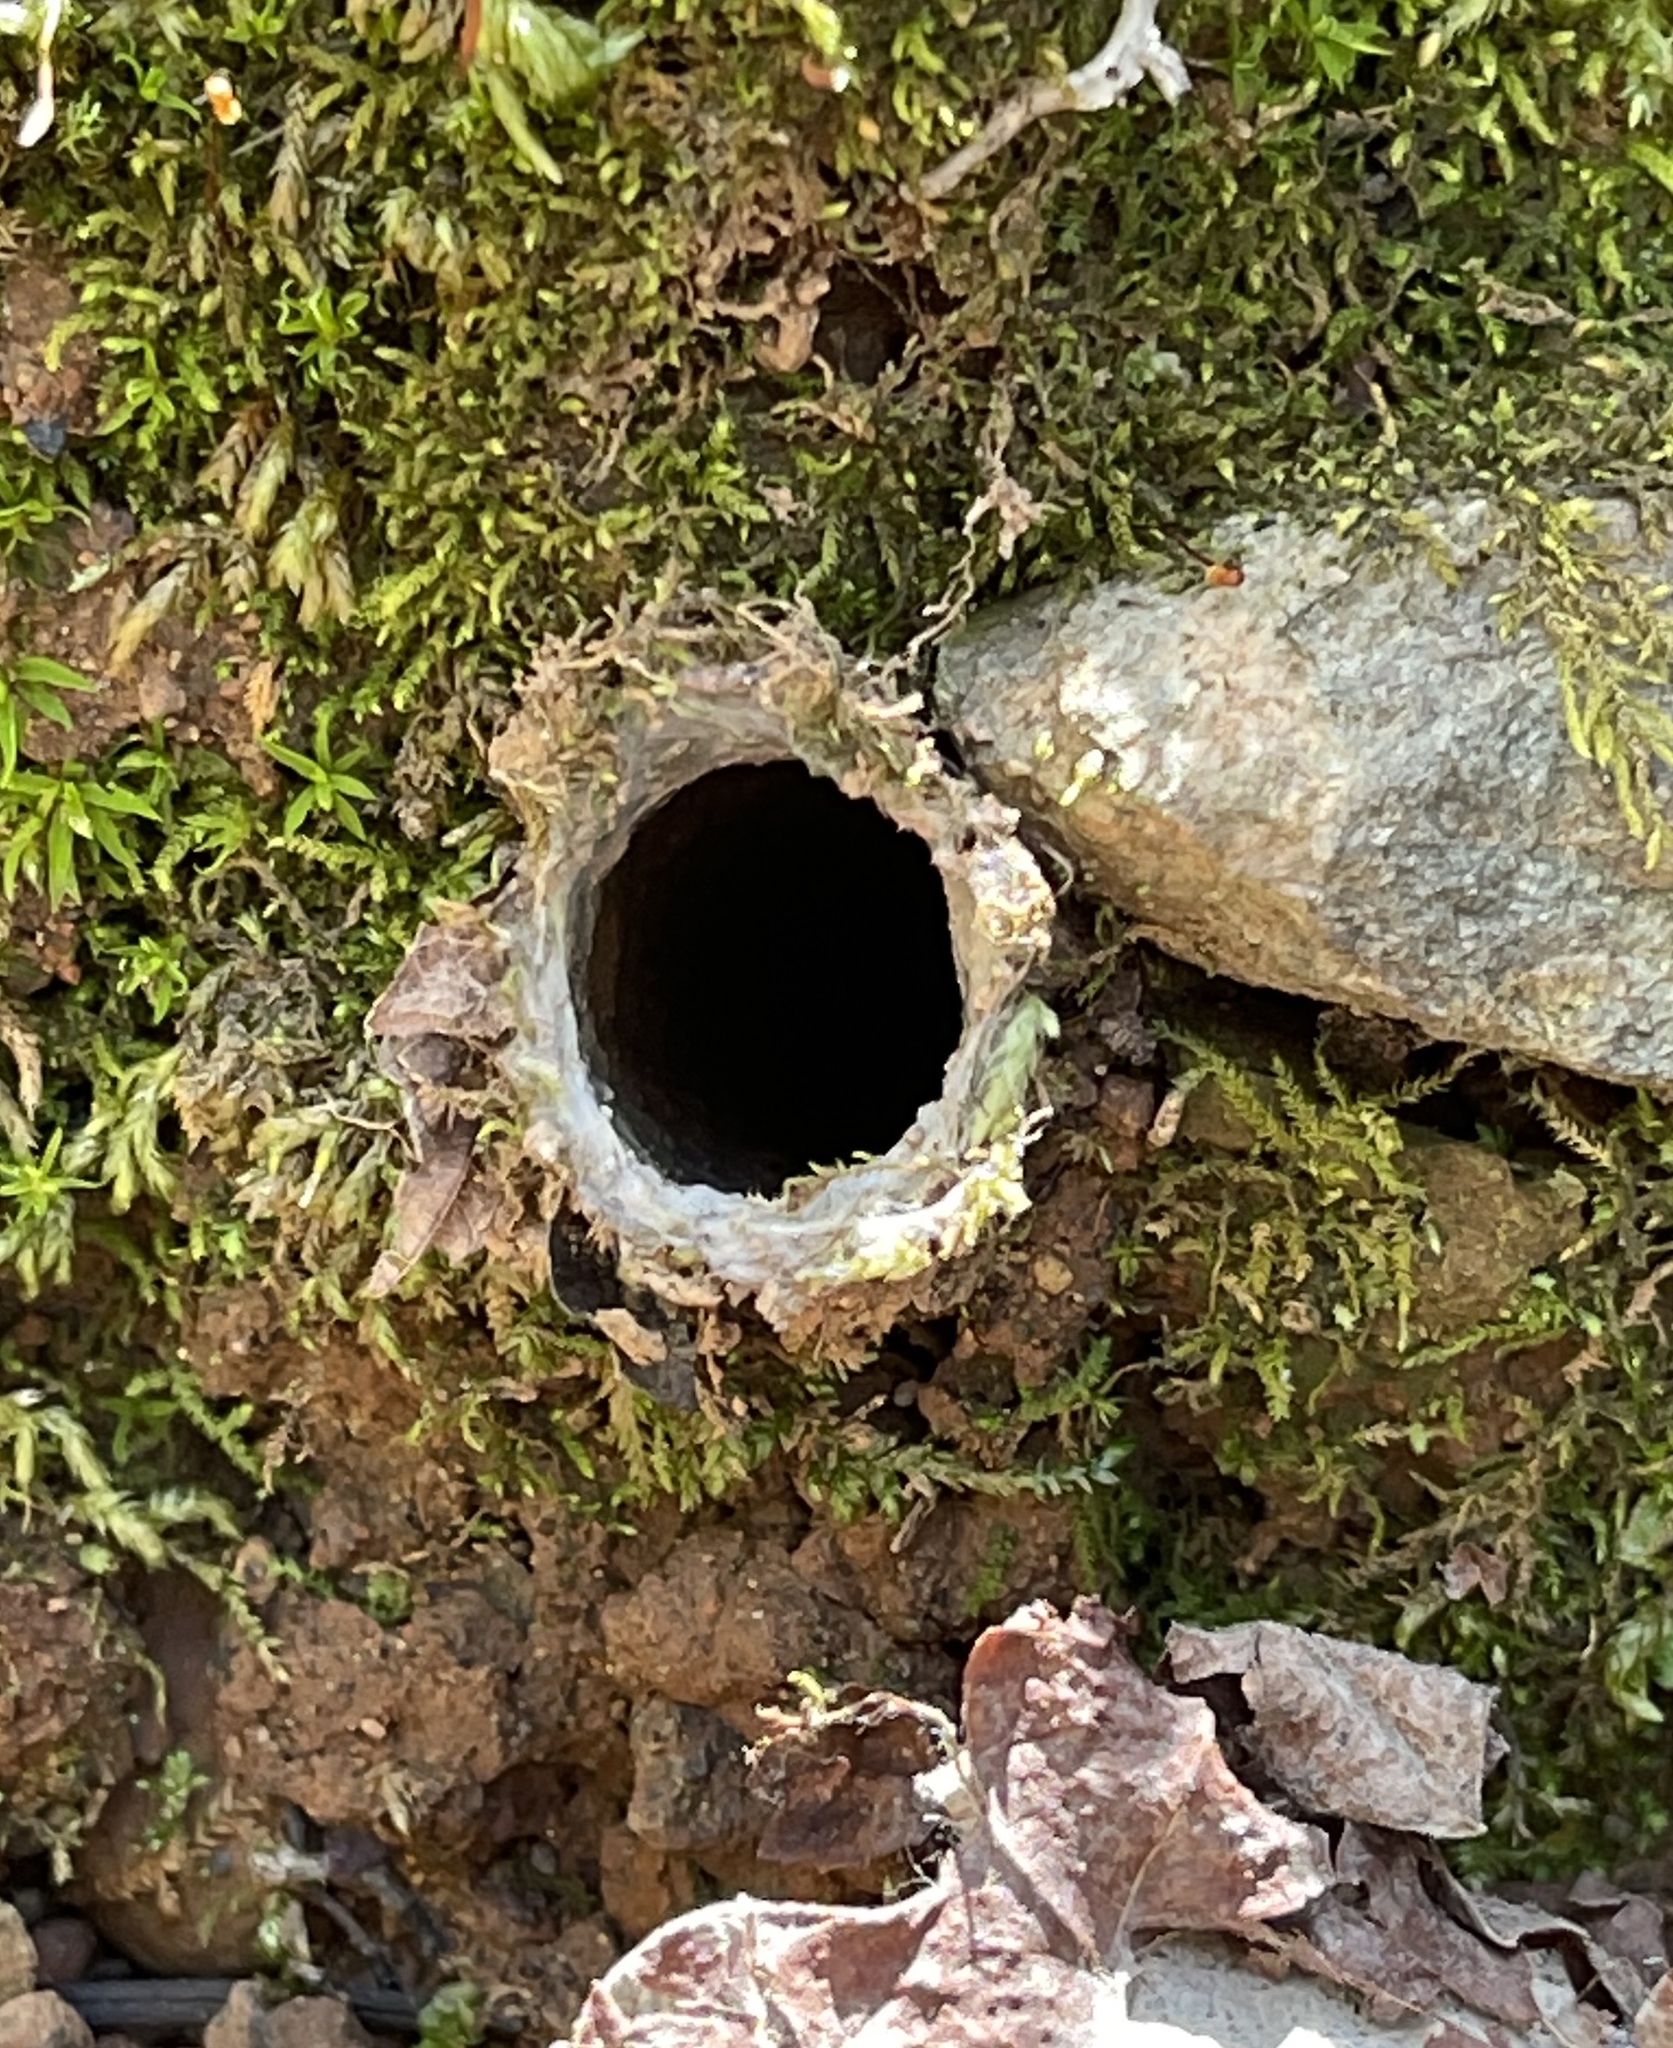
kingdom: Animalia
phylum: Arthropoda
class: Arachnida
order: Araneae
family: Antrodiaetidae
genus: Atypoides
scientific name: Atypoides riversi
